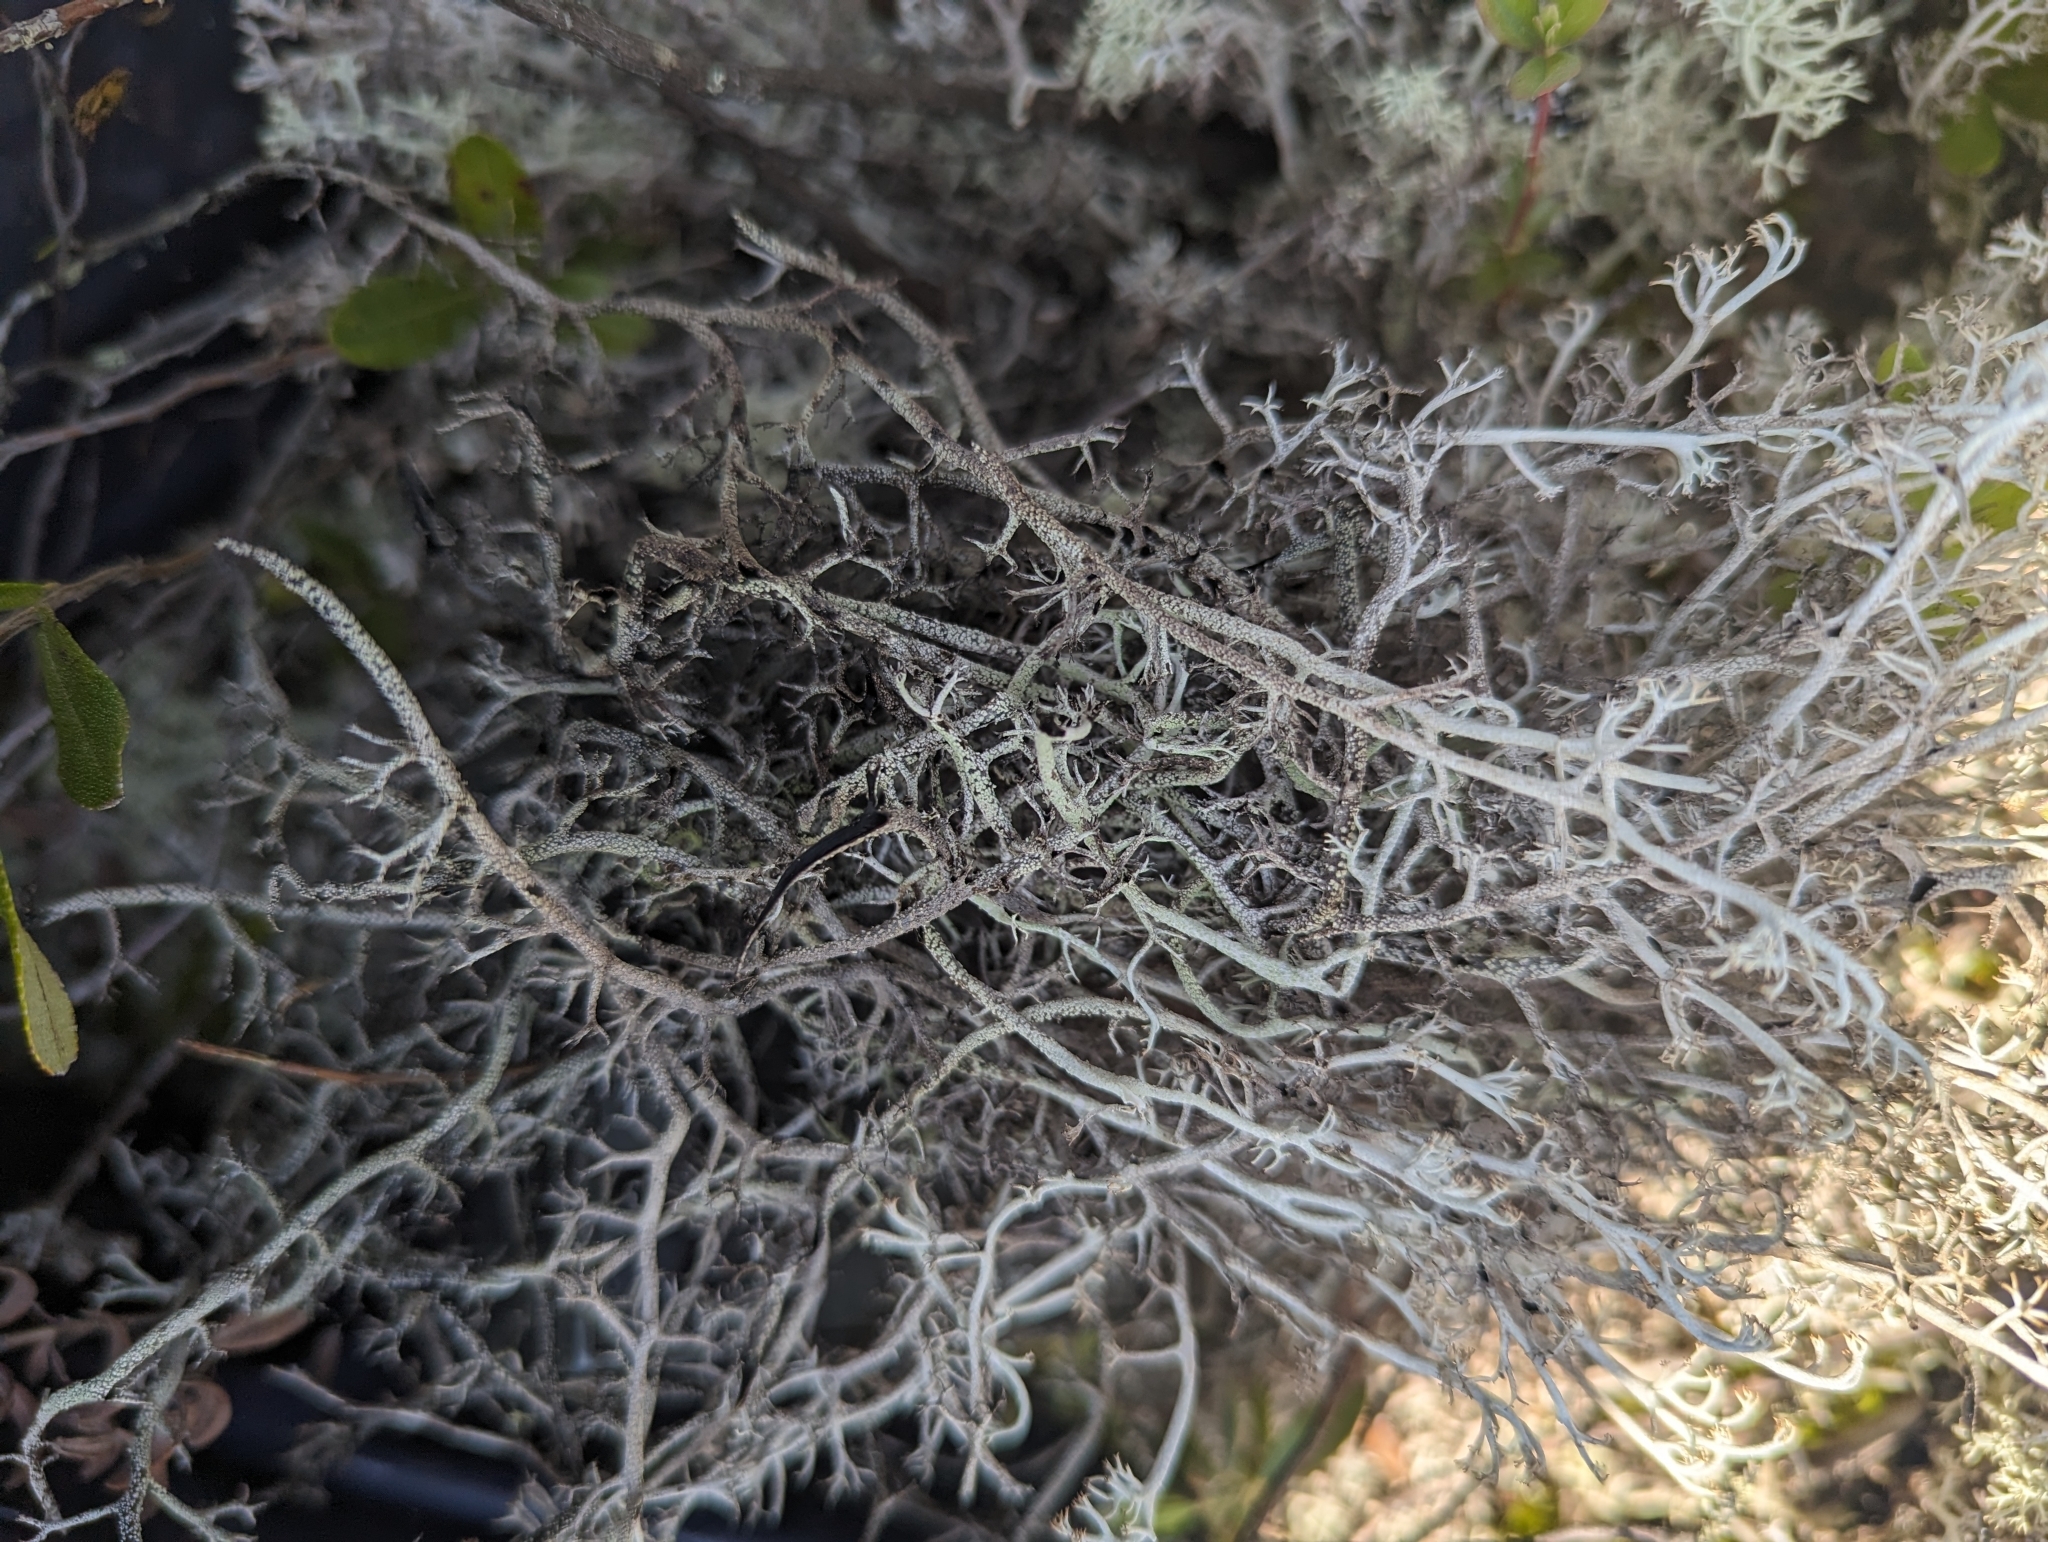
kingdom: Fungi
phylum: Ascomycota
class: Lecanoromycetes
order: Lecanorales
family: Cladoniaceae
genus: Cladonia
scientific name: Cladonia stygia
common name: Black-footed reindeer lichen
